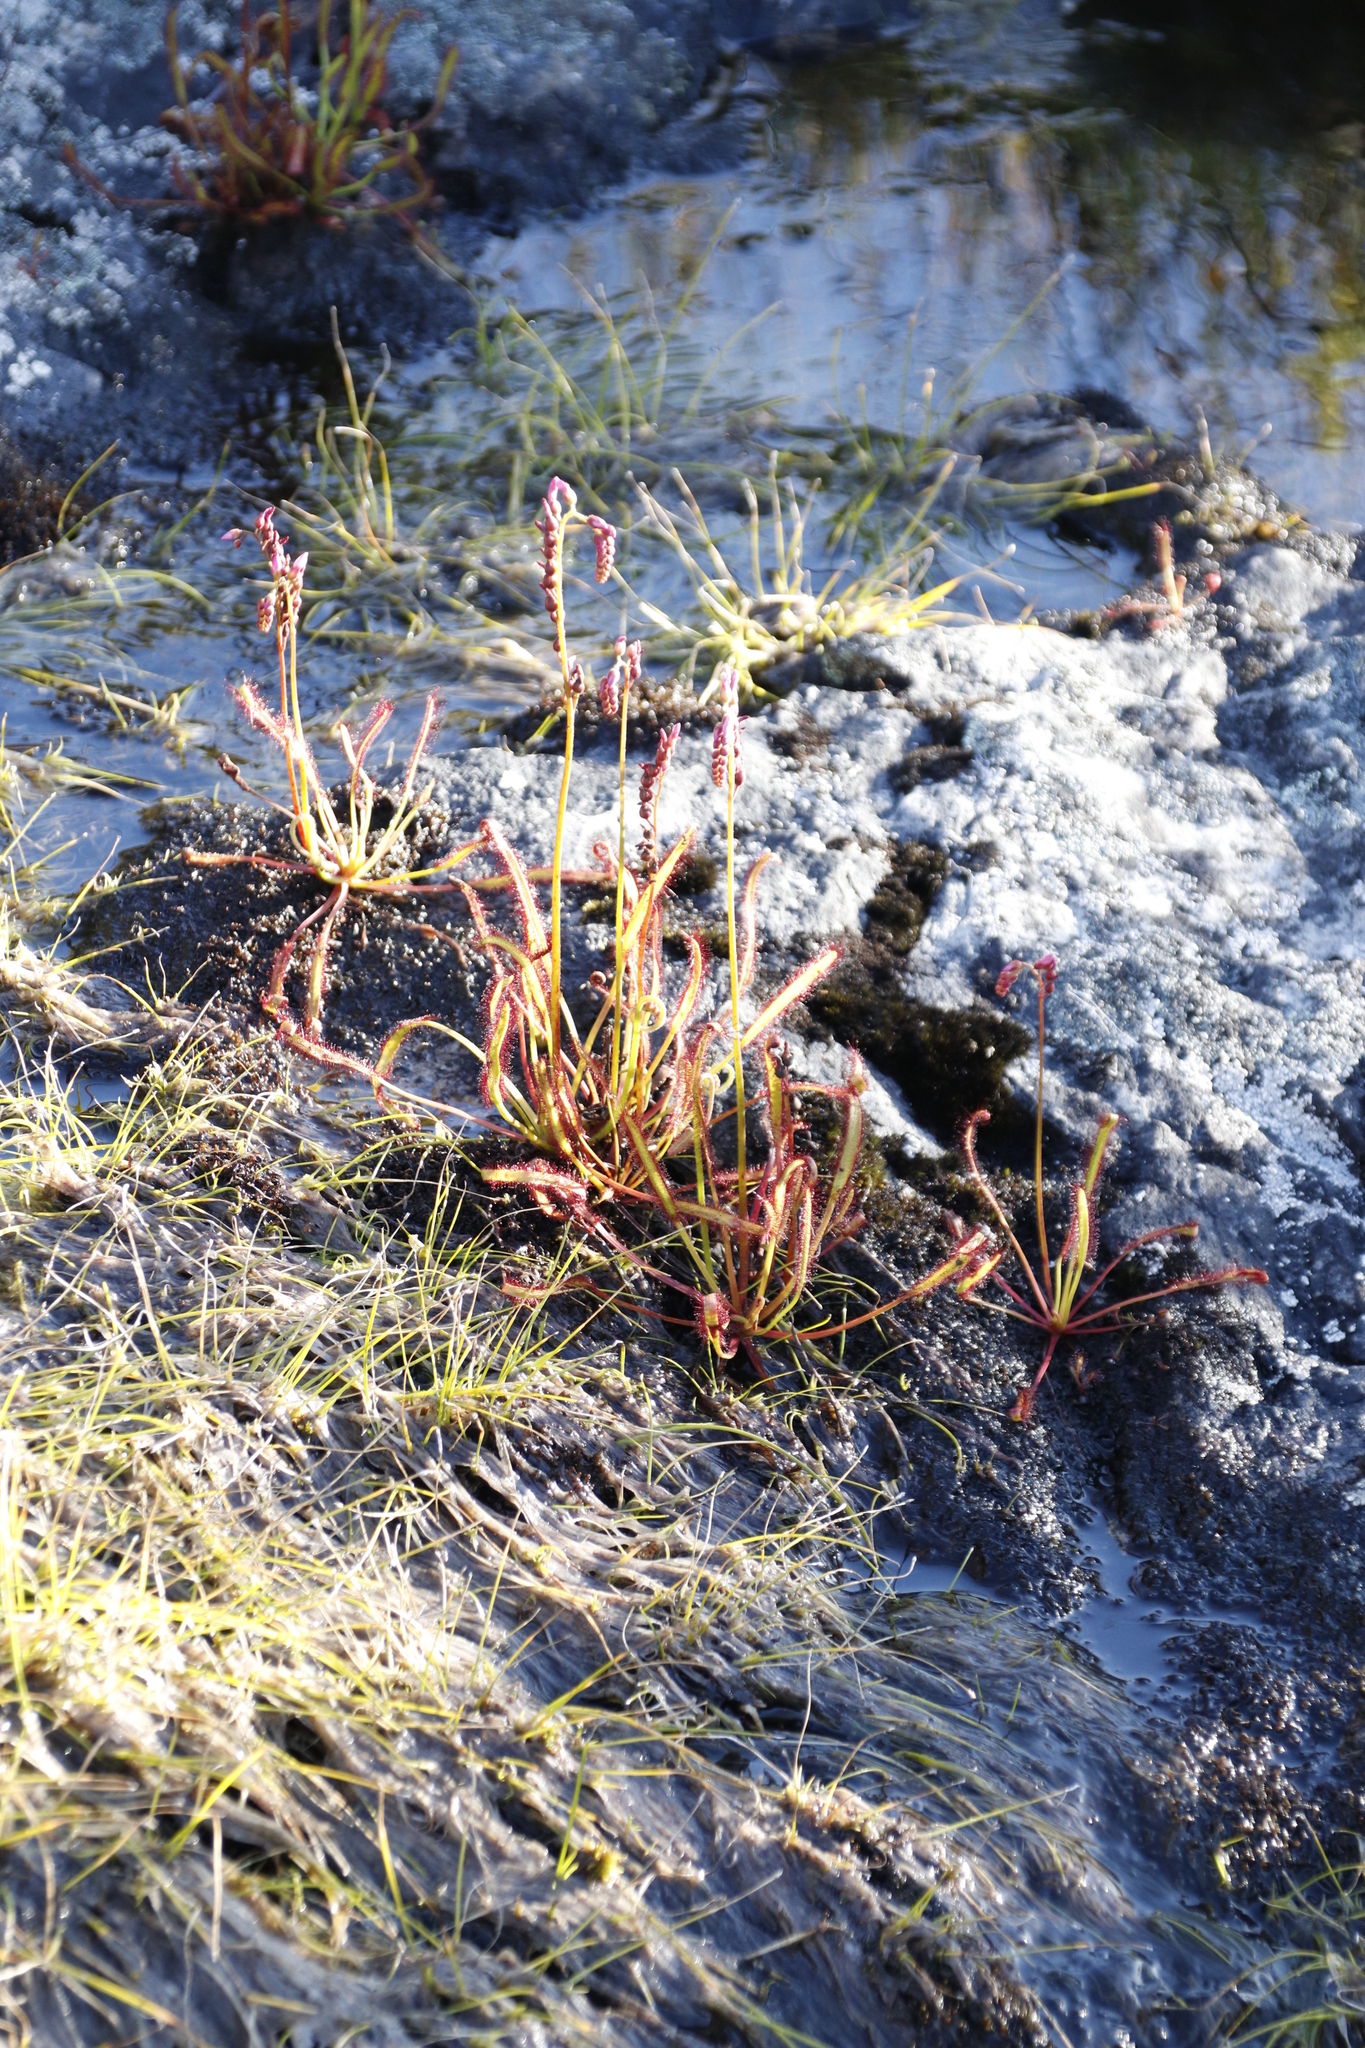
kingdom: Plantae
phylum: Tracheophyta
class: Magnoliopsida
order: Caryophyllales
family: Droseraceae
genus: Drosera
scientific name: Drosera capensis
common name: Cape sundew
